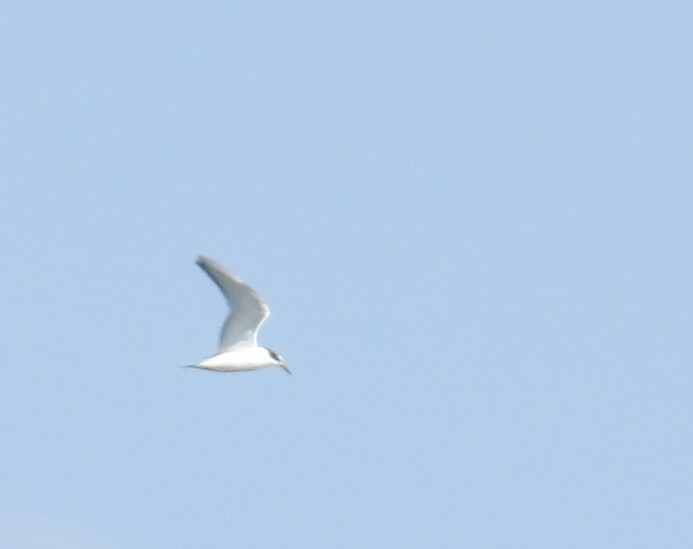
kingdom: Animalia
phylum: Chordata
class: Aves
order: Charadriiformes
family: Laridae
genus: Sterna
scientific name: Sterna forsteri
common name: Forster's tern
